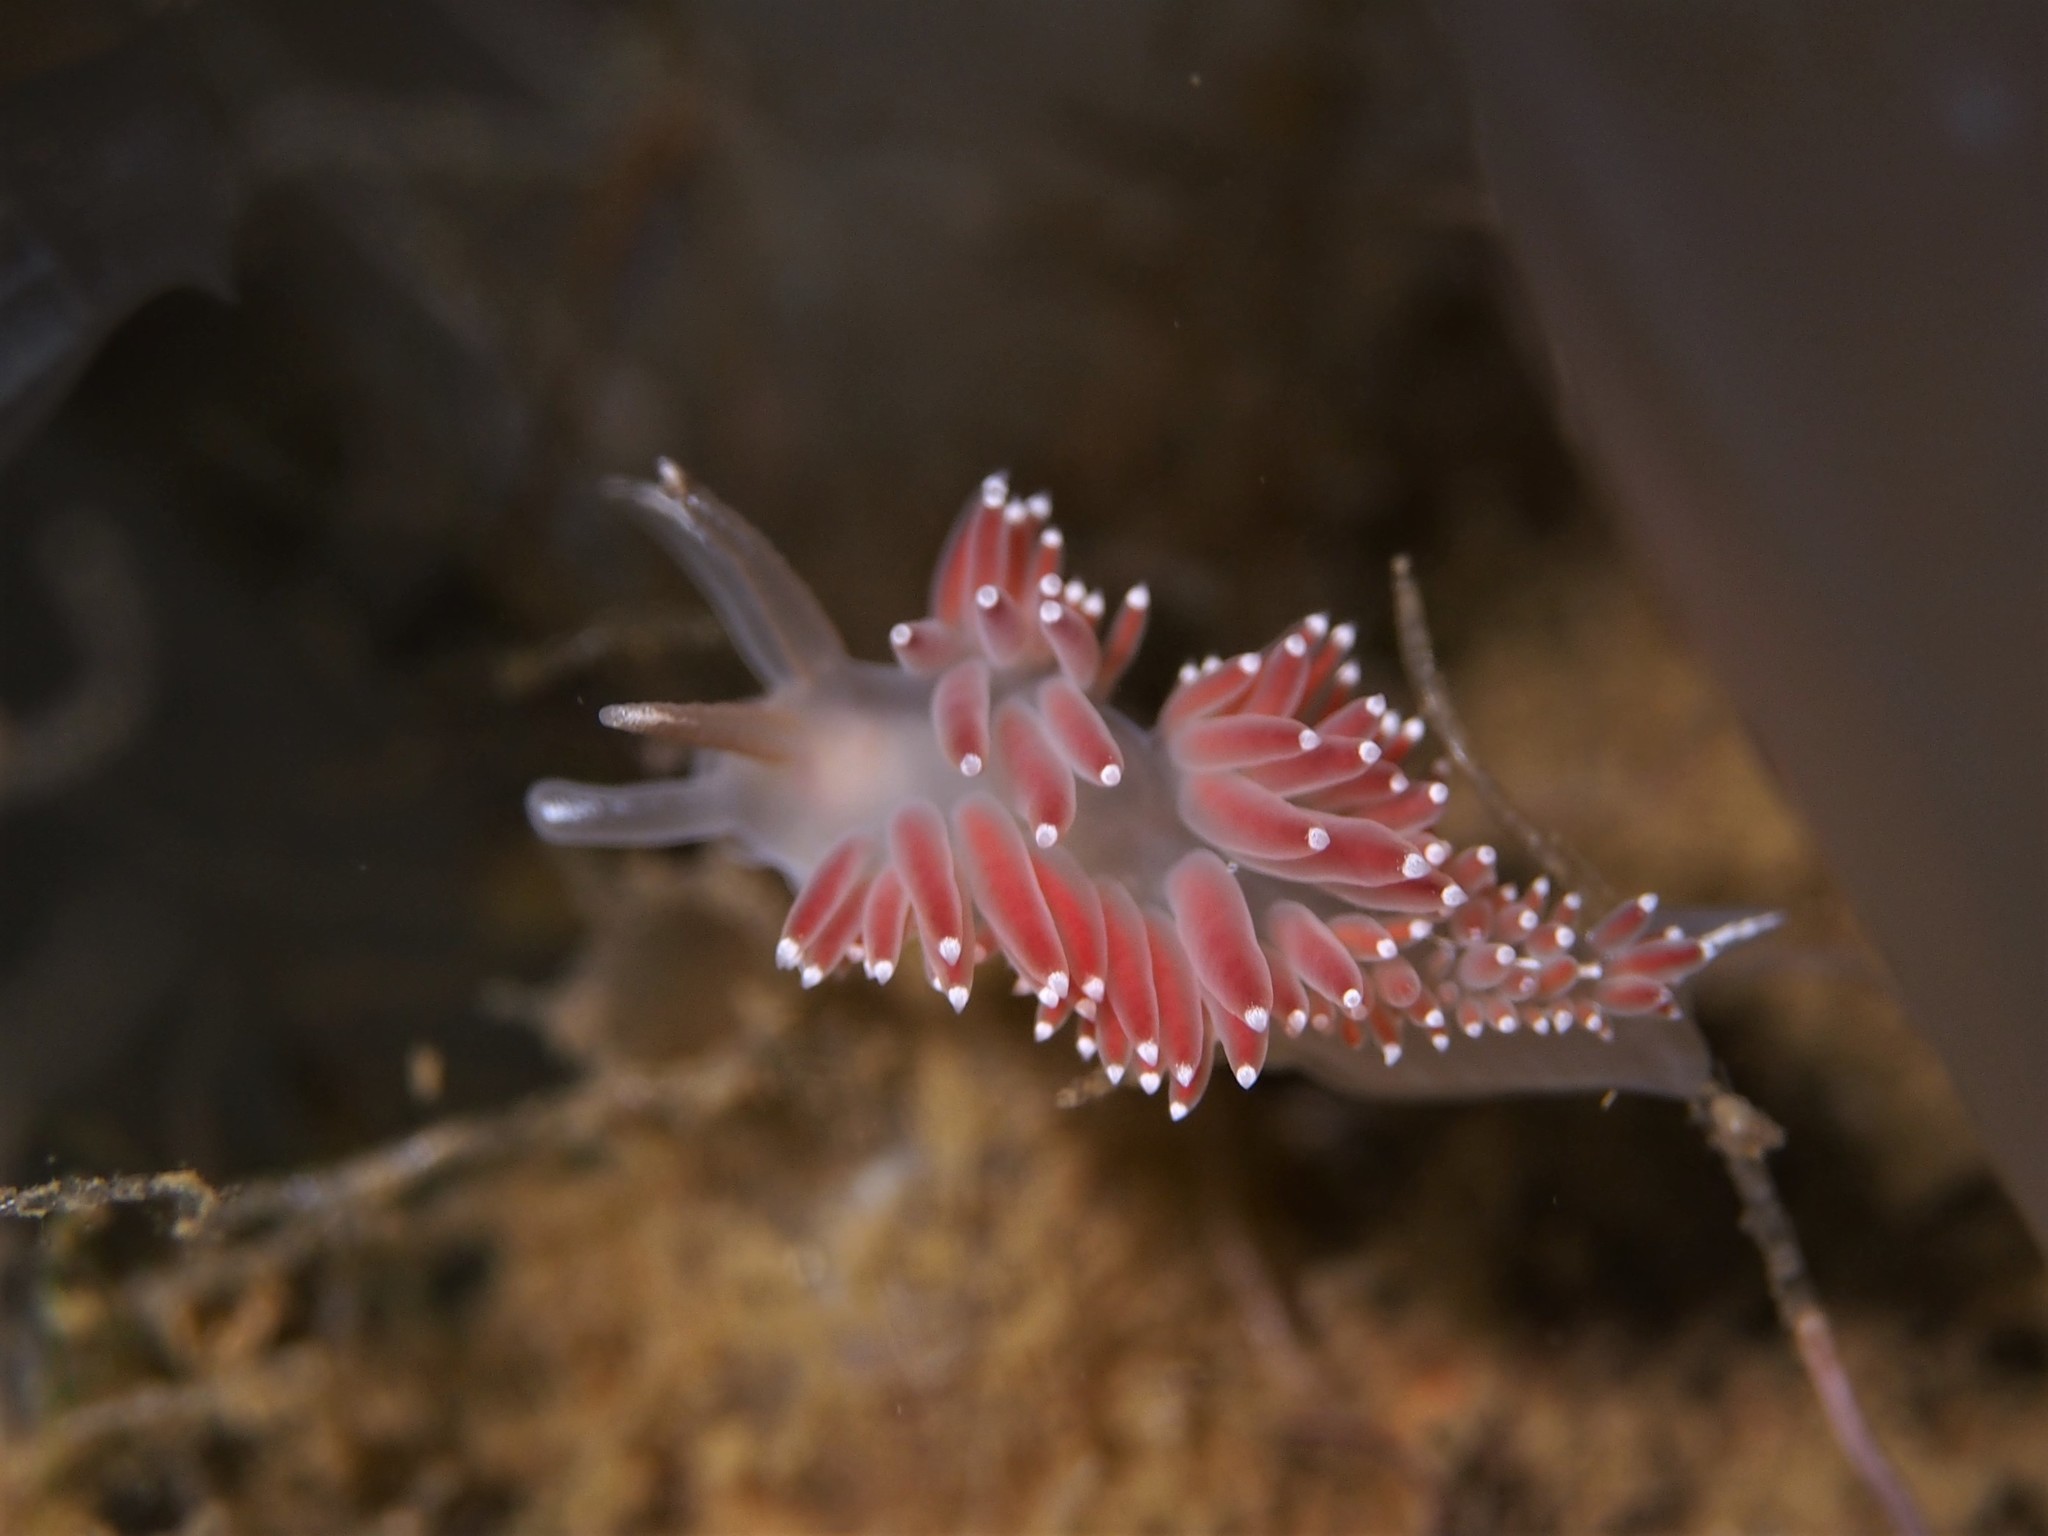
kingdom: Animalia
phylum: Mollusca
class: Gastropoda
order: Nudibranchia
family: Coryphellidae
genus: Coryphella
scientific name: Coryphella verrucosa
